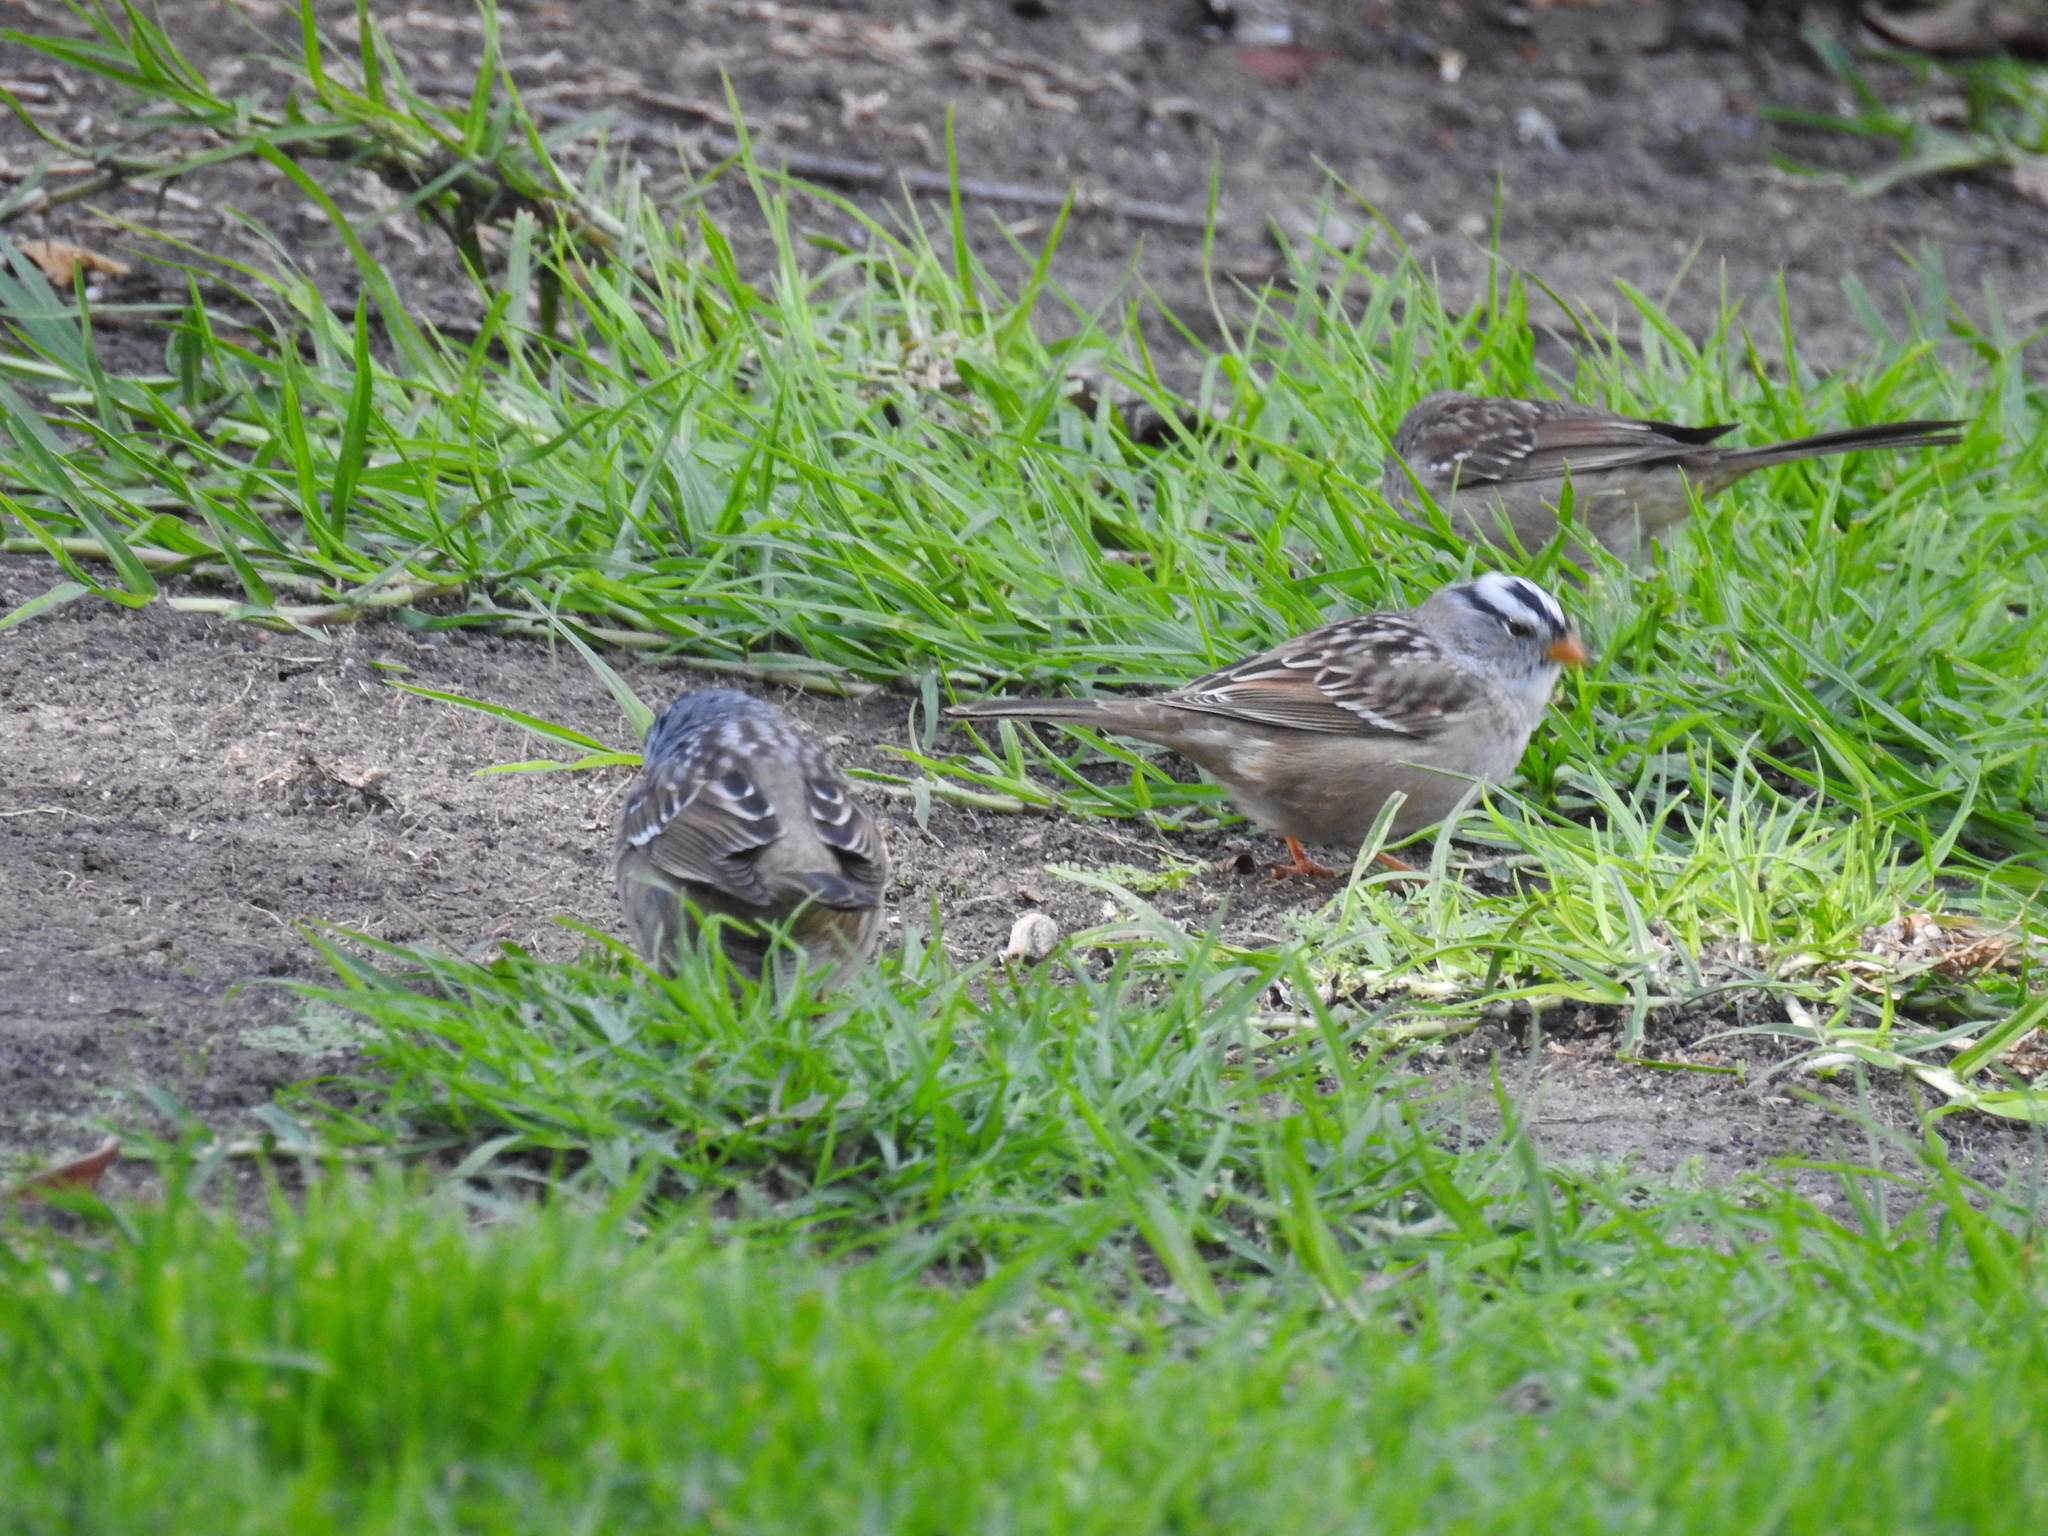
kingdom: Animalia
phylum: Chordata
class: Aves
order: Passeriformes
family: Passerellidae
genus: Zonotrichia
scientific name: Zonotrichia leucophrys
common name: White-crowned sparrow
